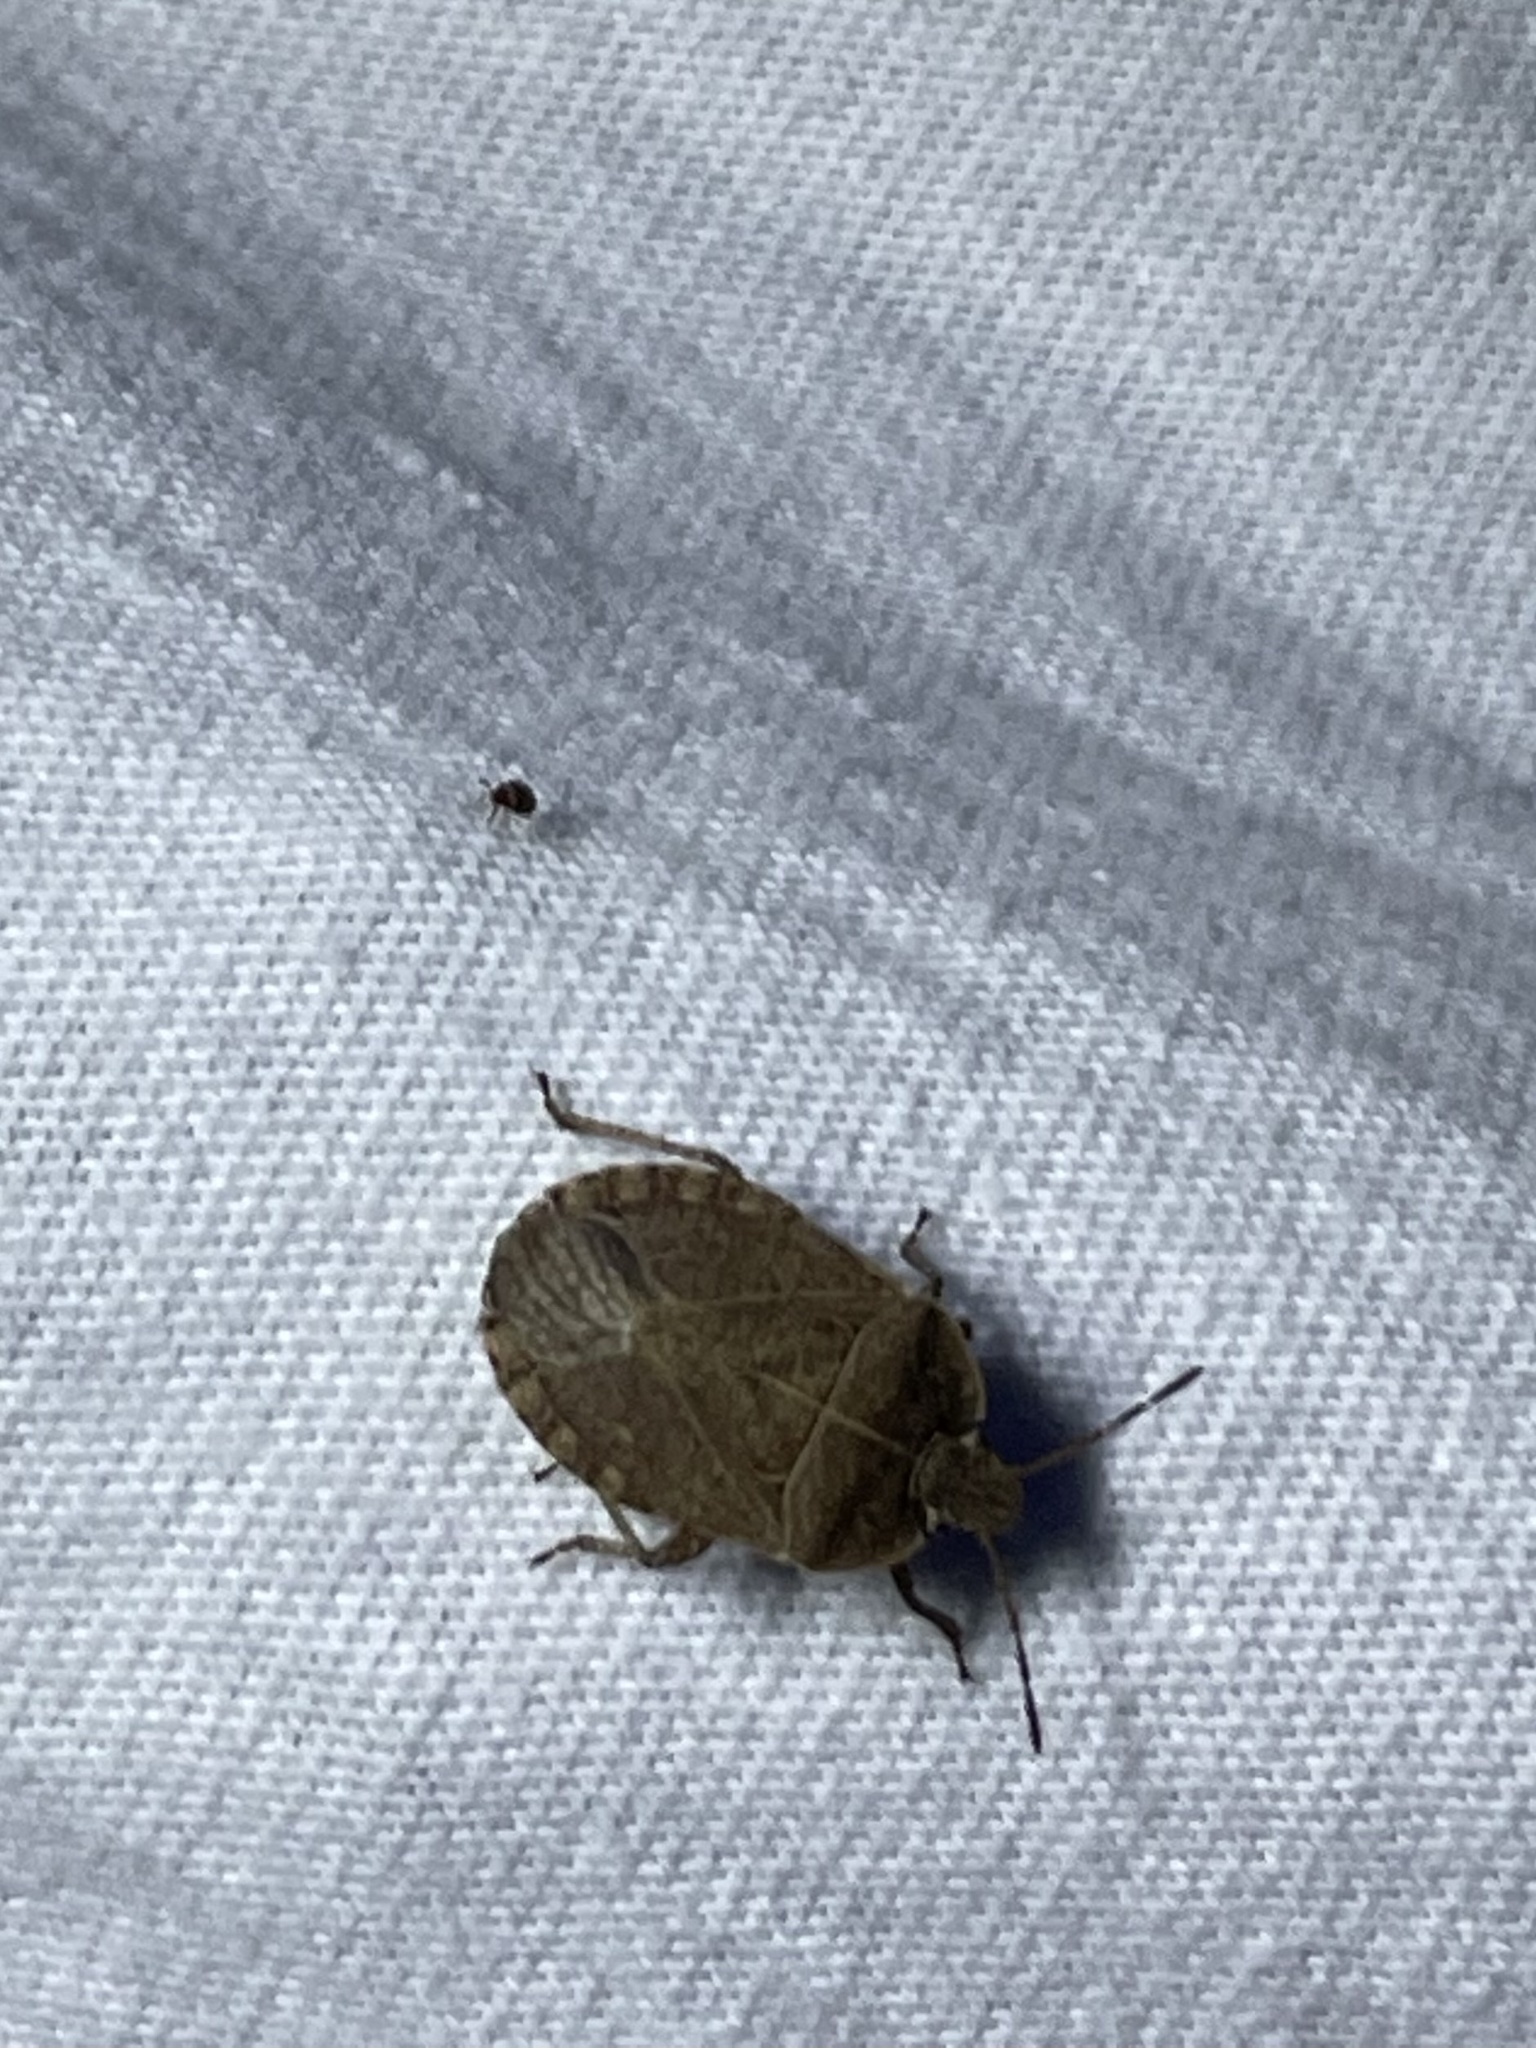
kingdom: Animalia
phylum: Arthropoda
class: Insecta
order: Hemiptera
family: Pentatomidae
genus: Menecles
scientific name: Menecles insertus
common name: Elf shoe stink bug
